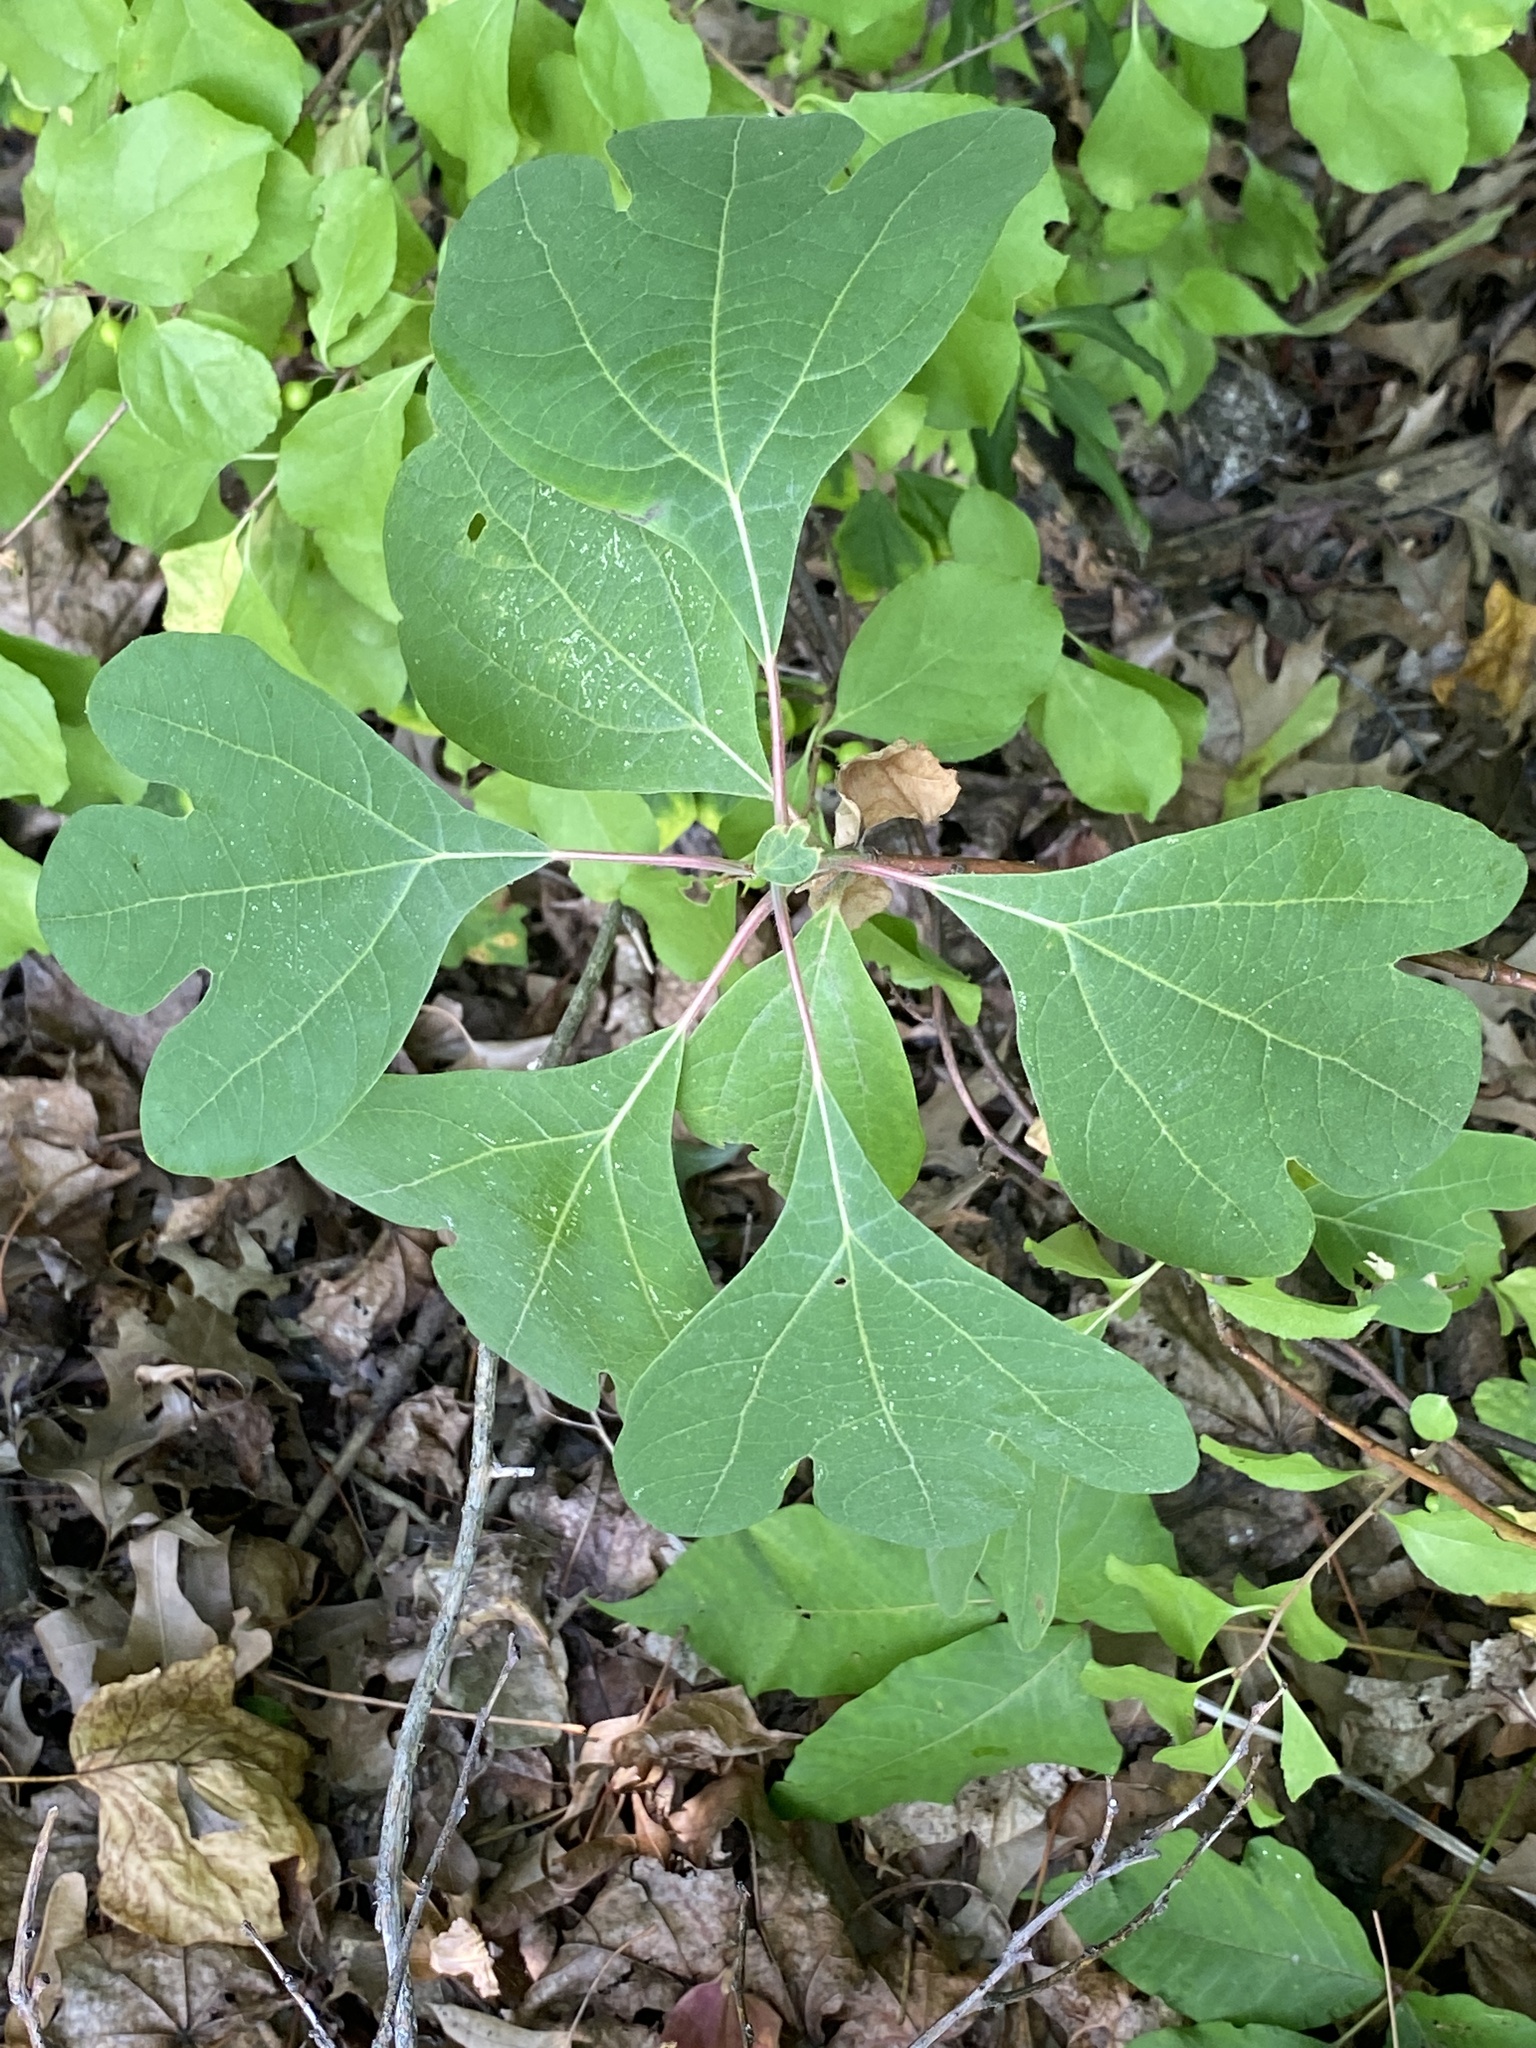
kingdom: Plantae
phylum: Tracheophyta
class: Magnoliopsida
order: Laurales
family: Lauraceae
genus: Sassafras
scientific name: Sassafras albidum
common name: Sassafras
